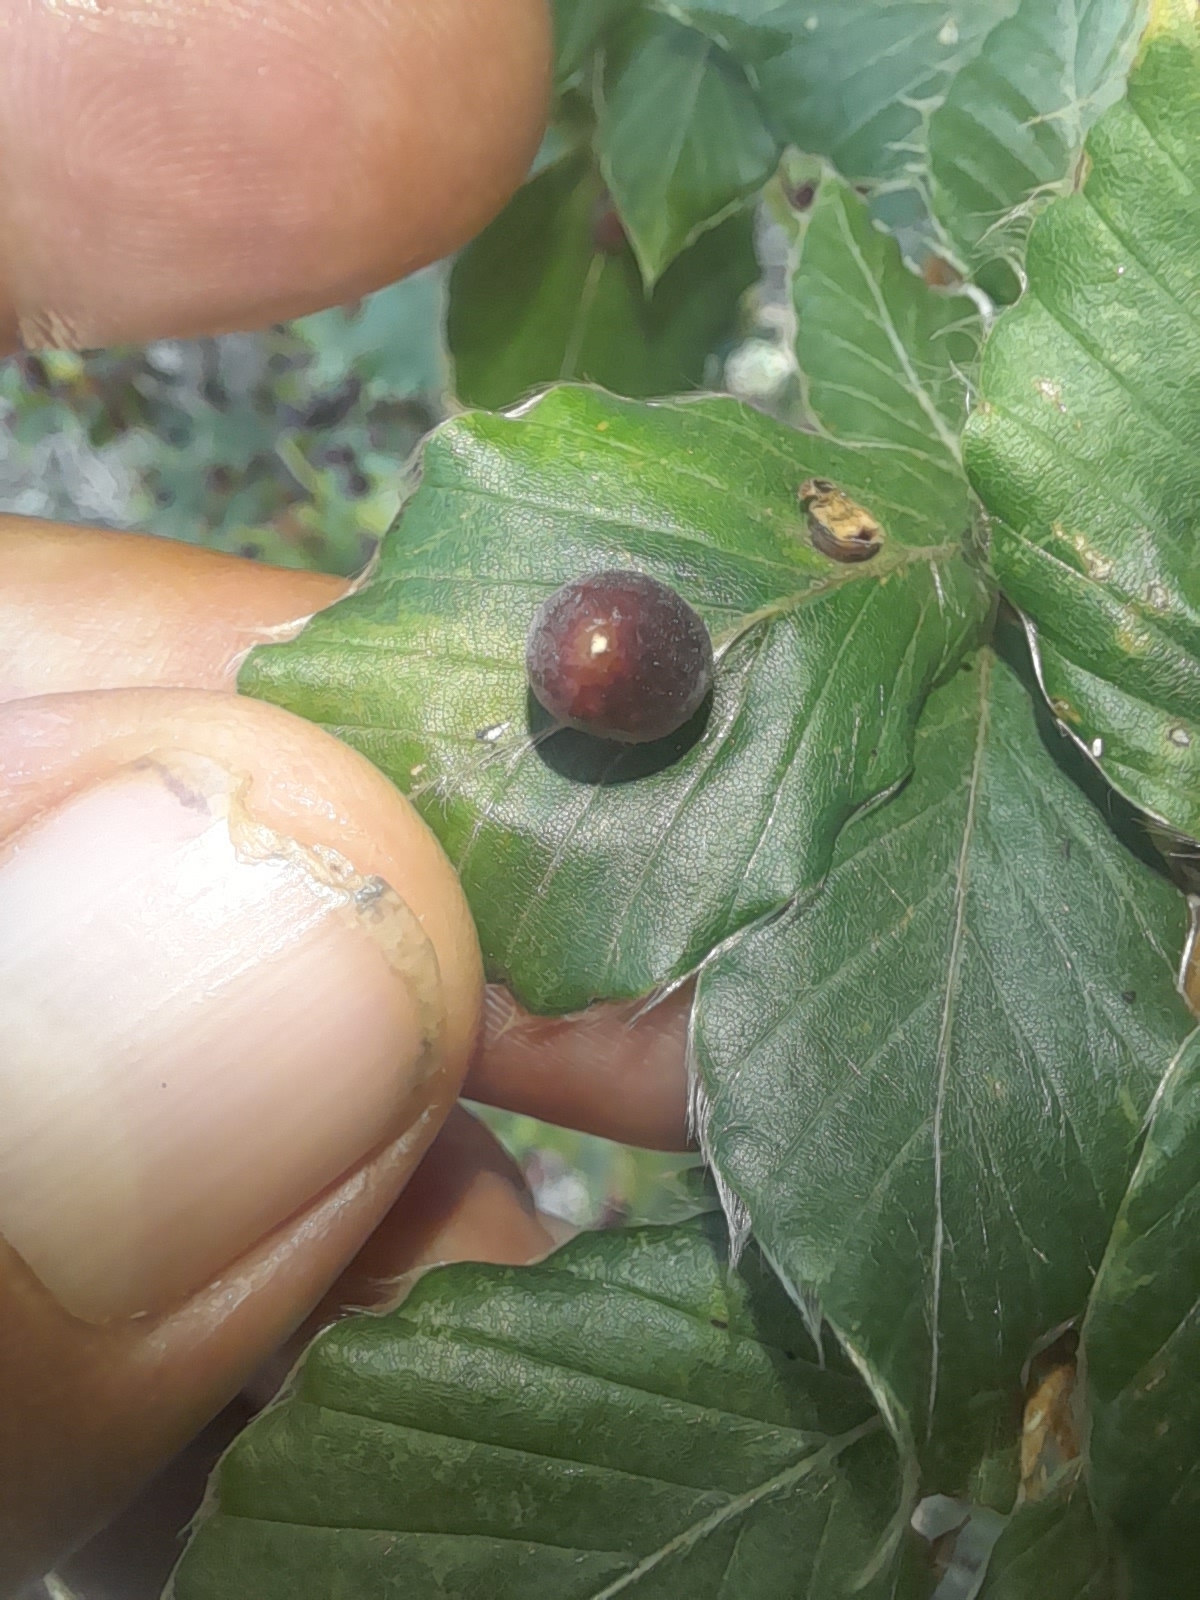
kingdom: Animalia
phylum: Arthropoda
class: Insecta
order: Diptera
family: Cecidomyiidae
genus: Mikiola
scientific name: Mikiola fagi
